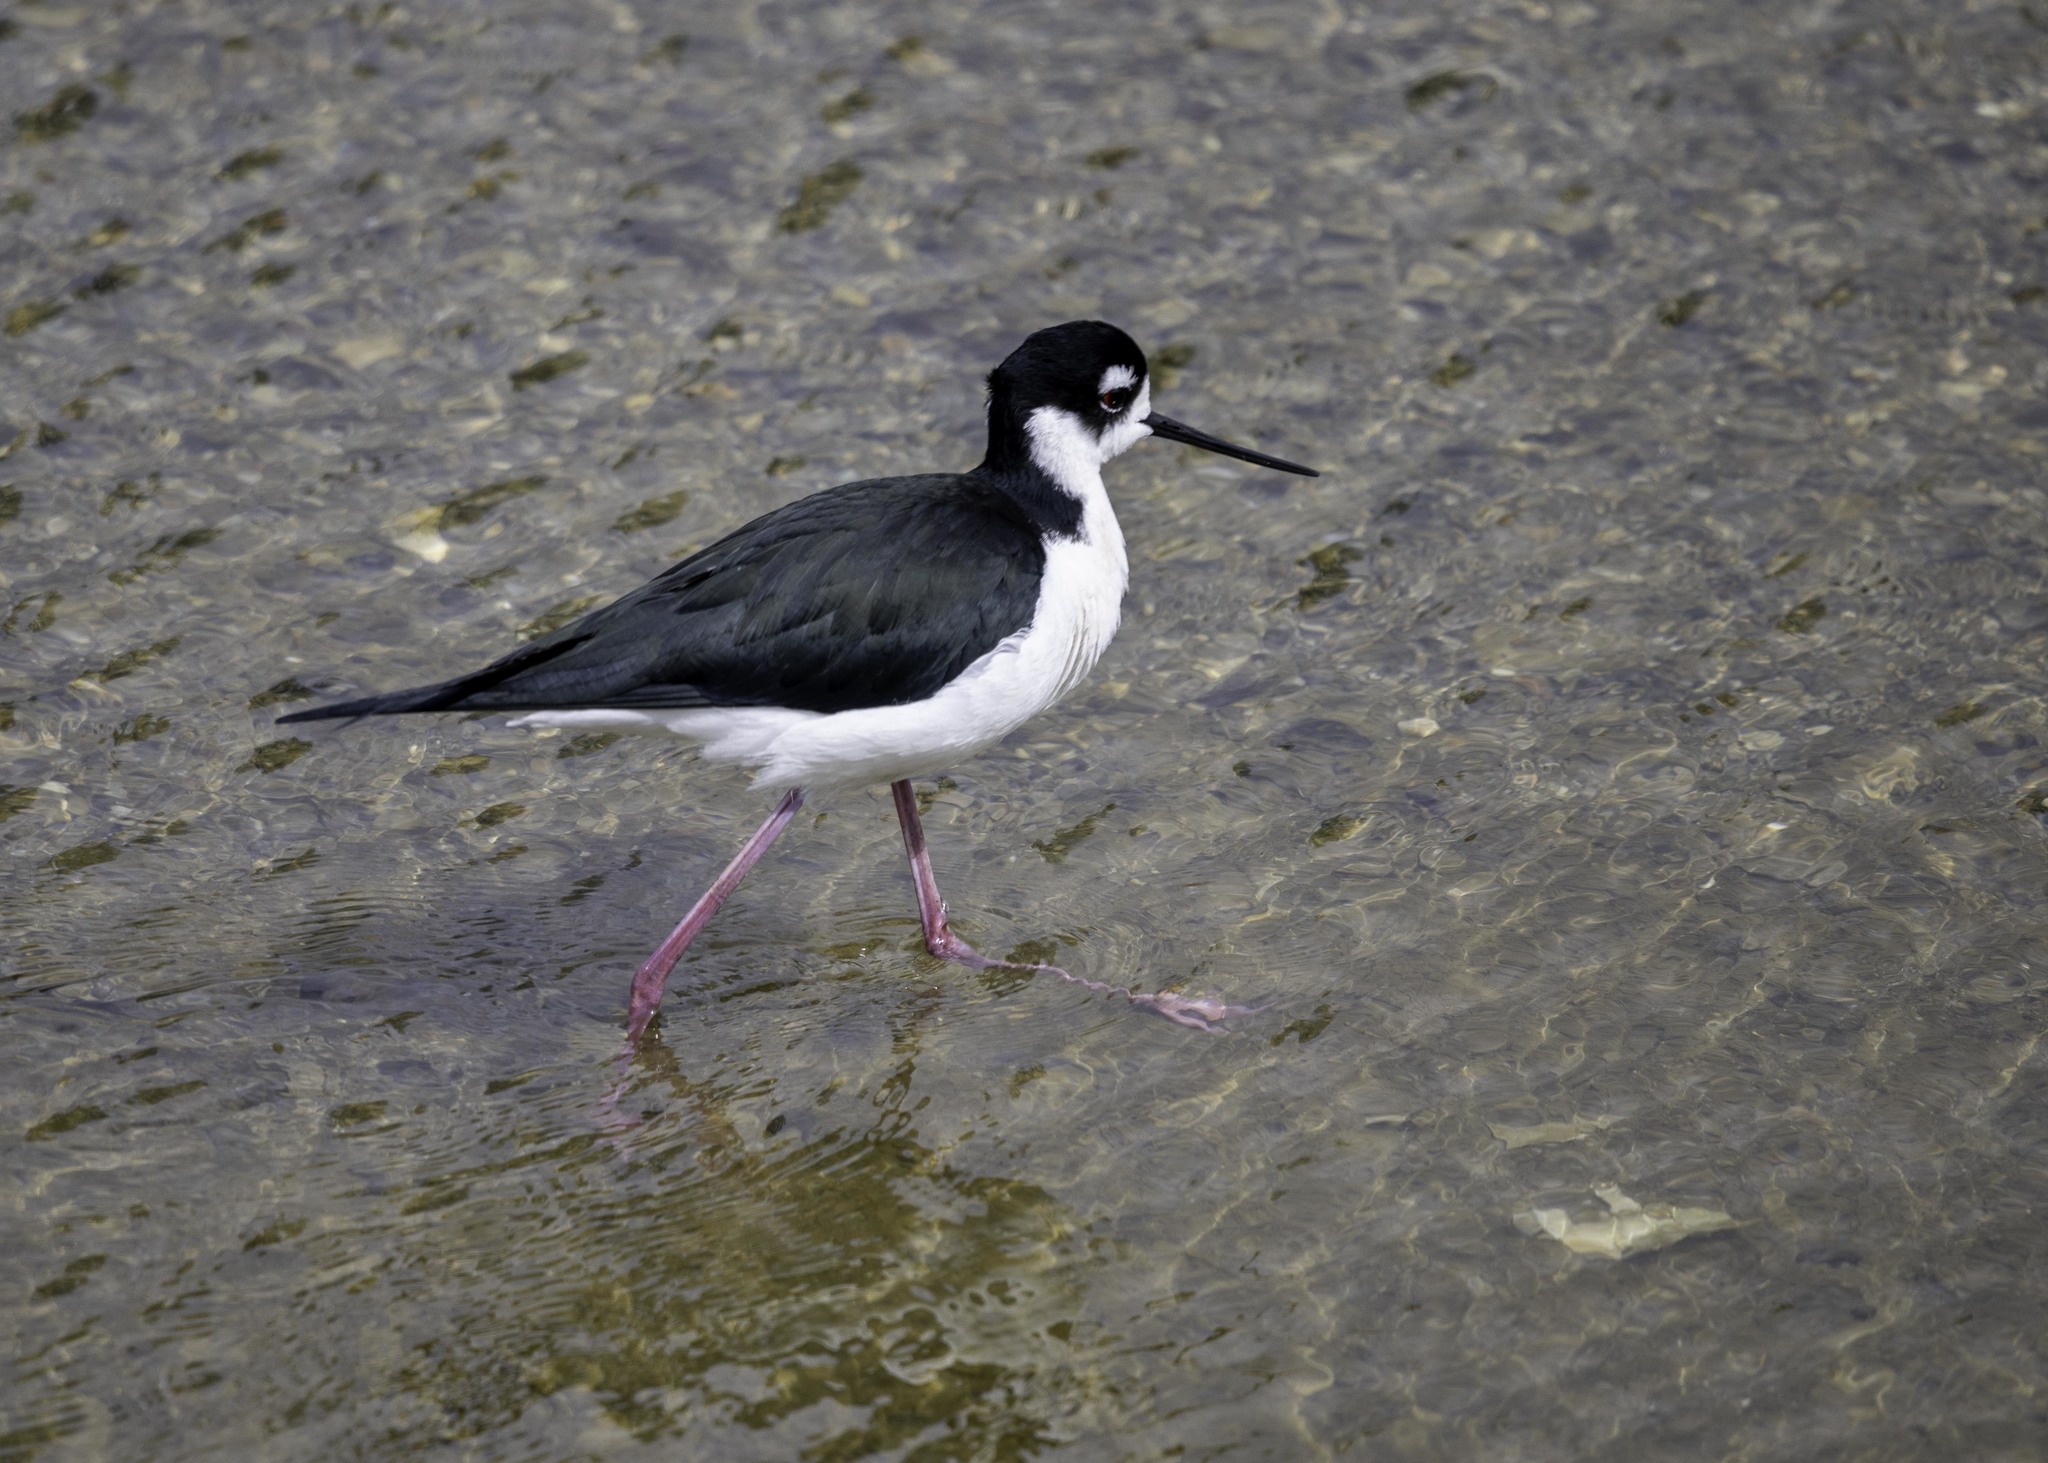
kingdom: Animalia
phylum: Chordata
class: Aves
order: Charadriiformes
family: Recurvirostridae
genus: Himantopus
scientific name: Himantopus mexicanus
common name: Black-necked stilt
